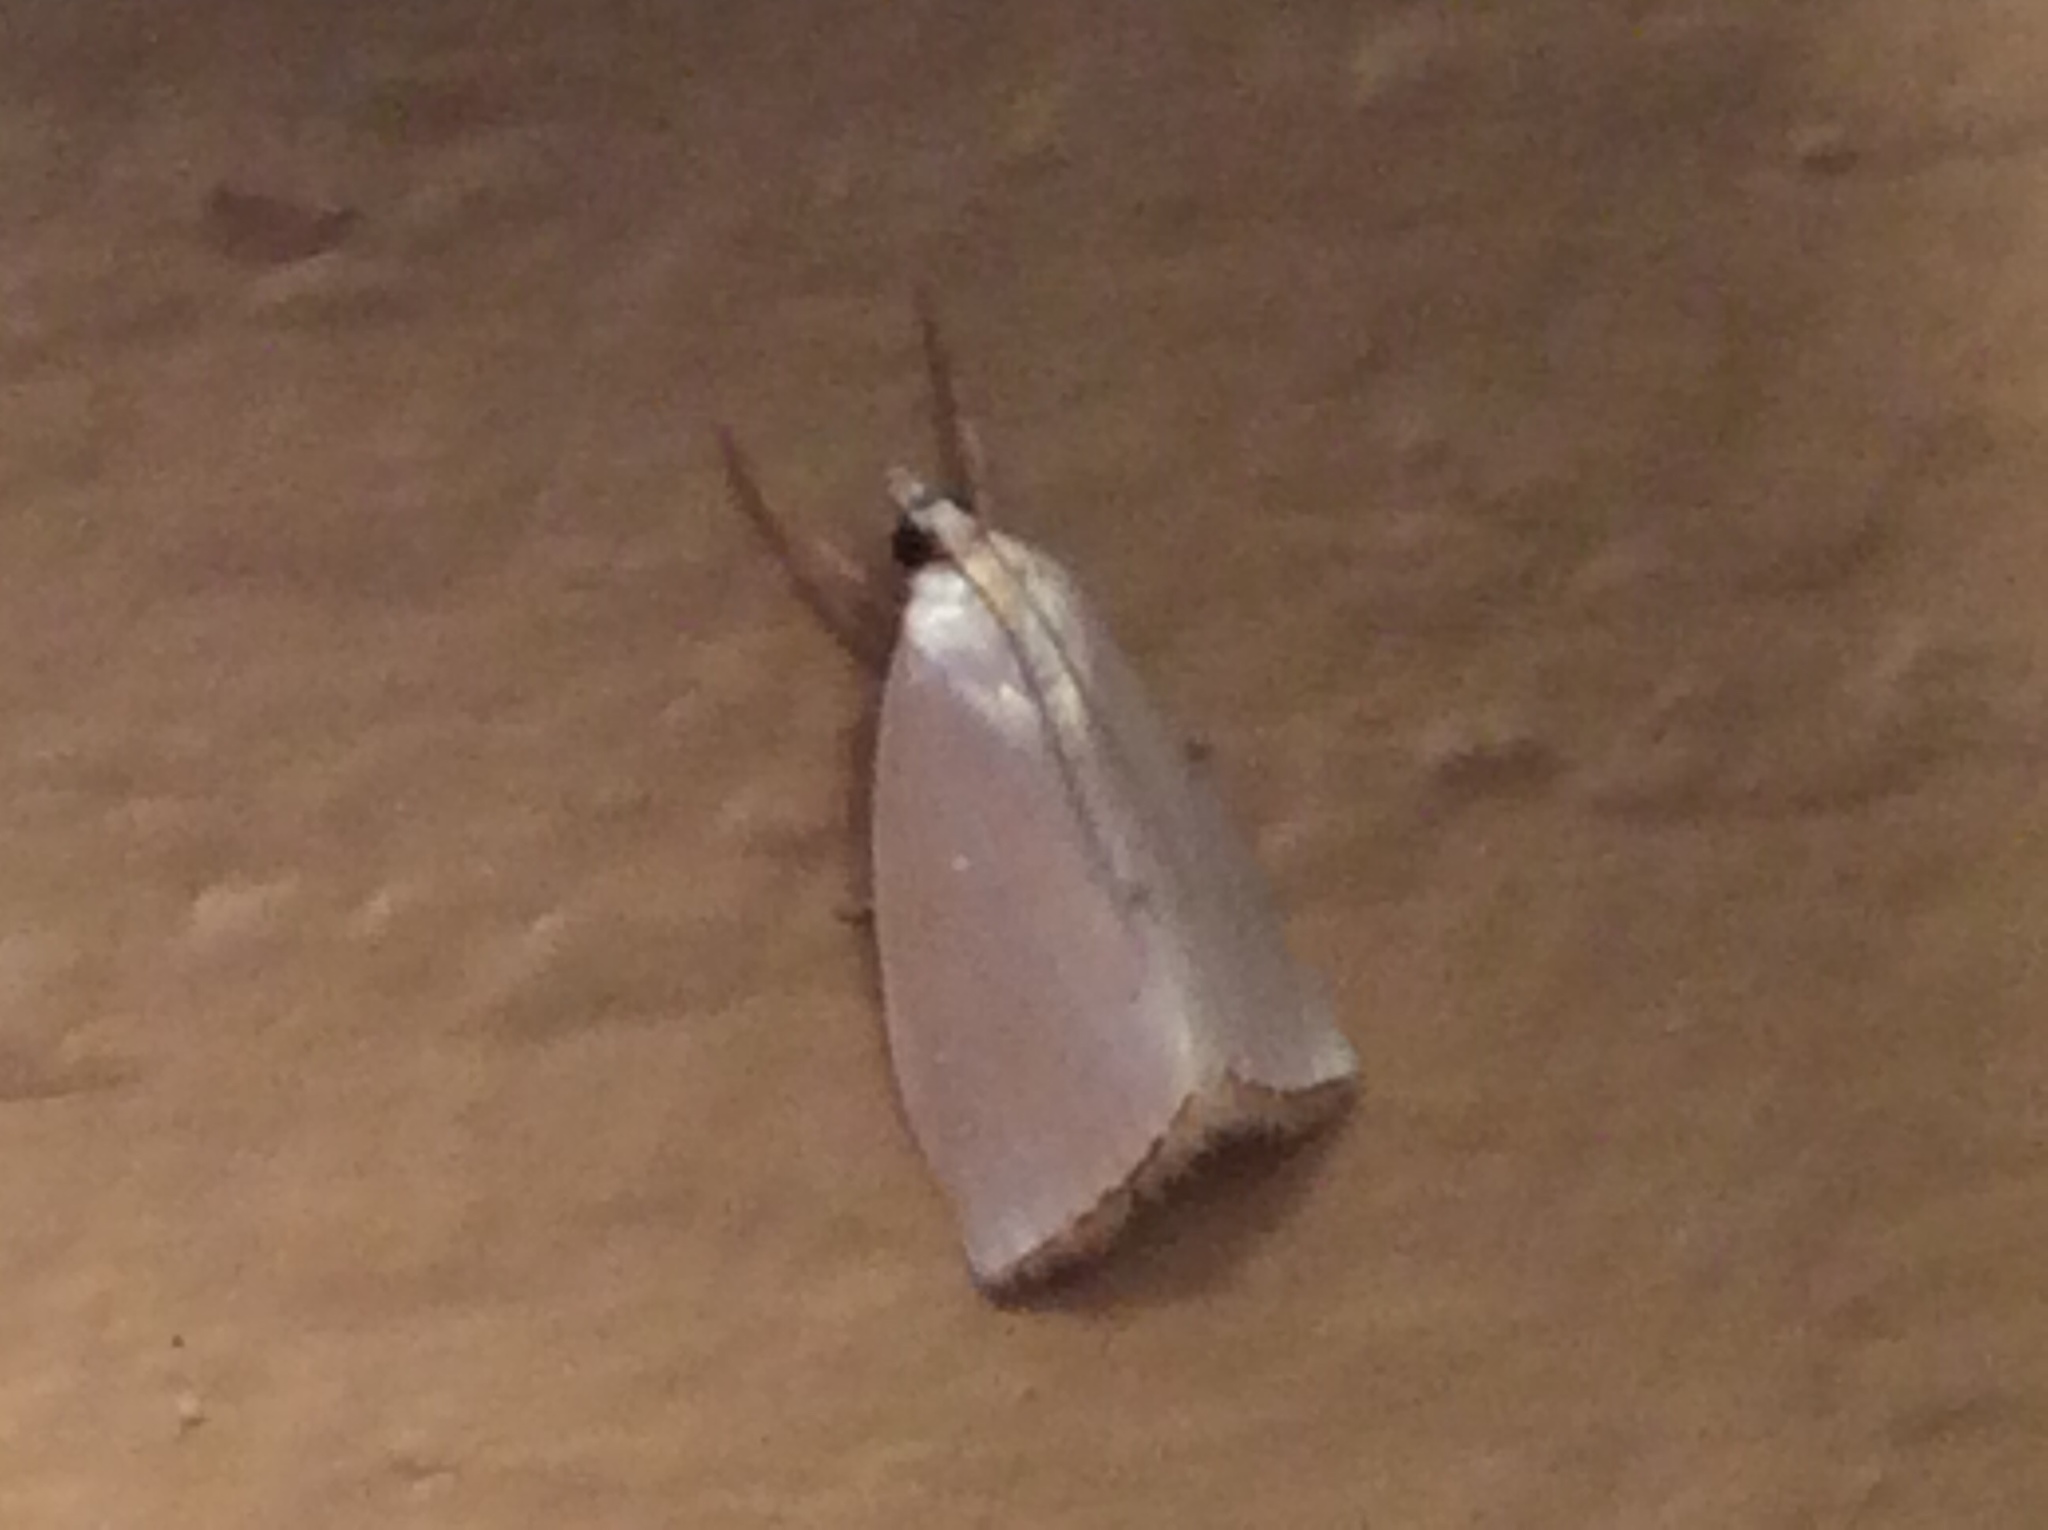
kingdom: Animalia
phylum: Arthropoda
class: Insecta
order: Lepidoptera
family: Crambidae
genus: Argyria
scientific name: Argyria nivalis
